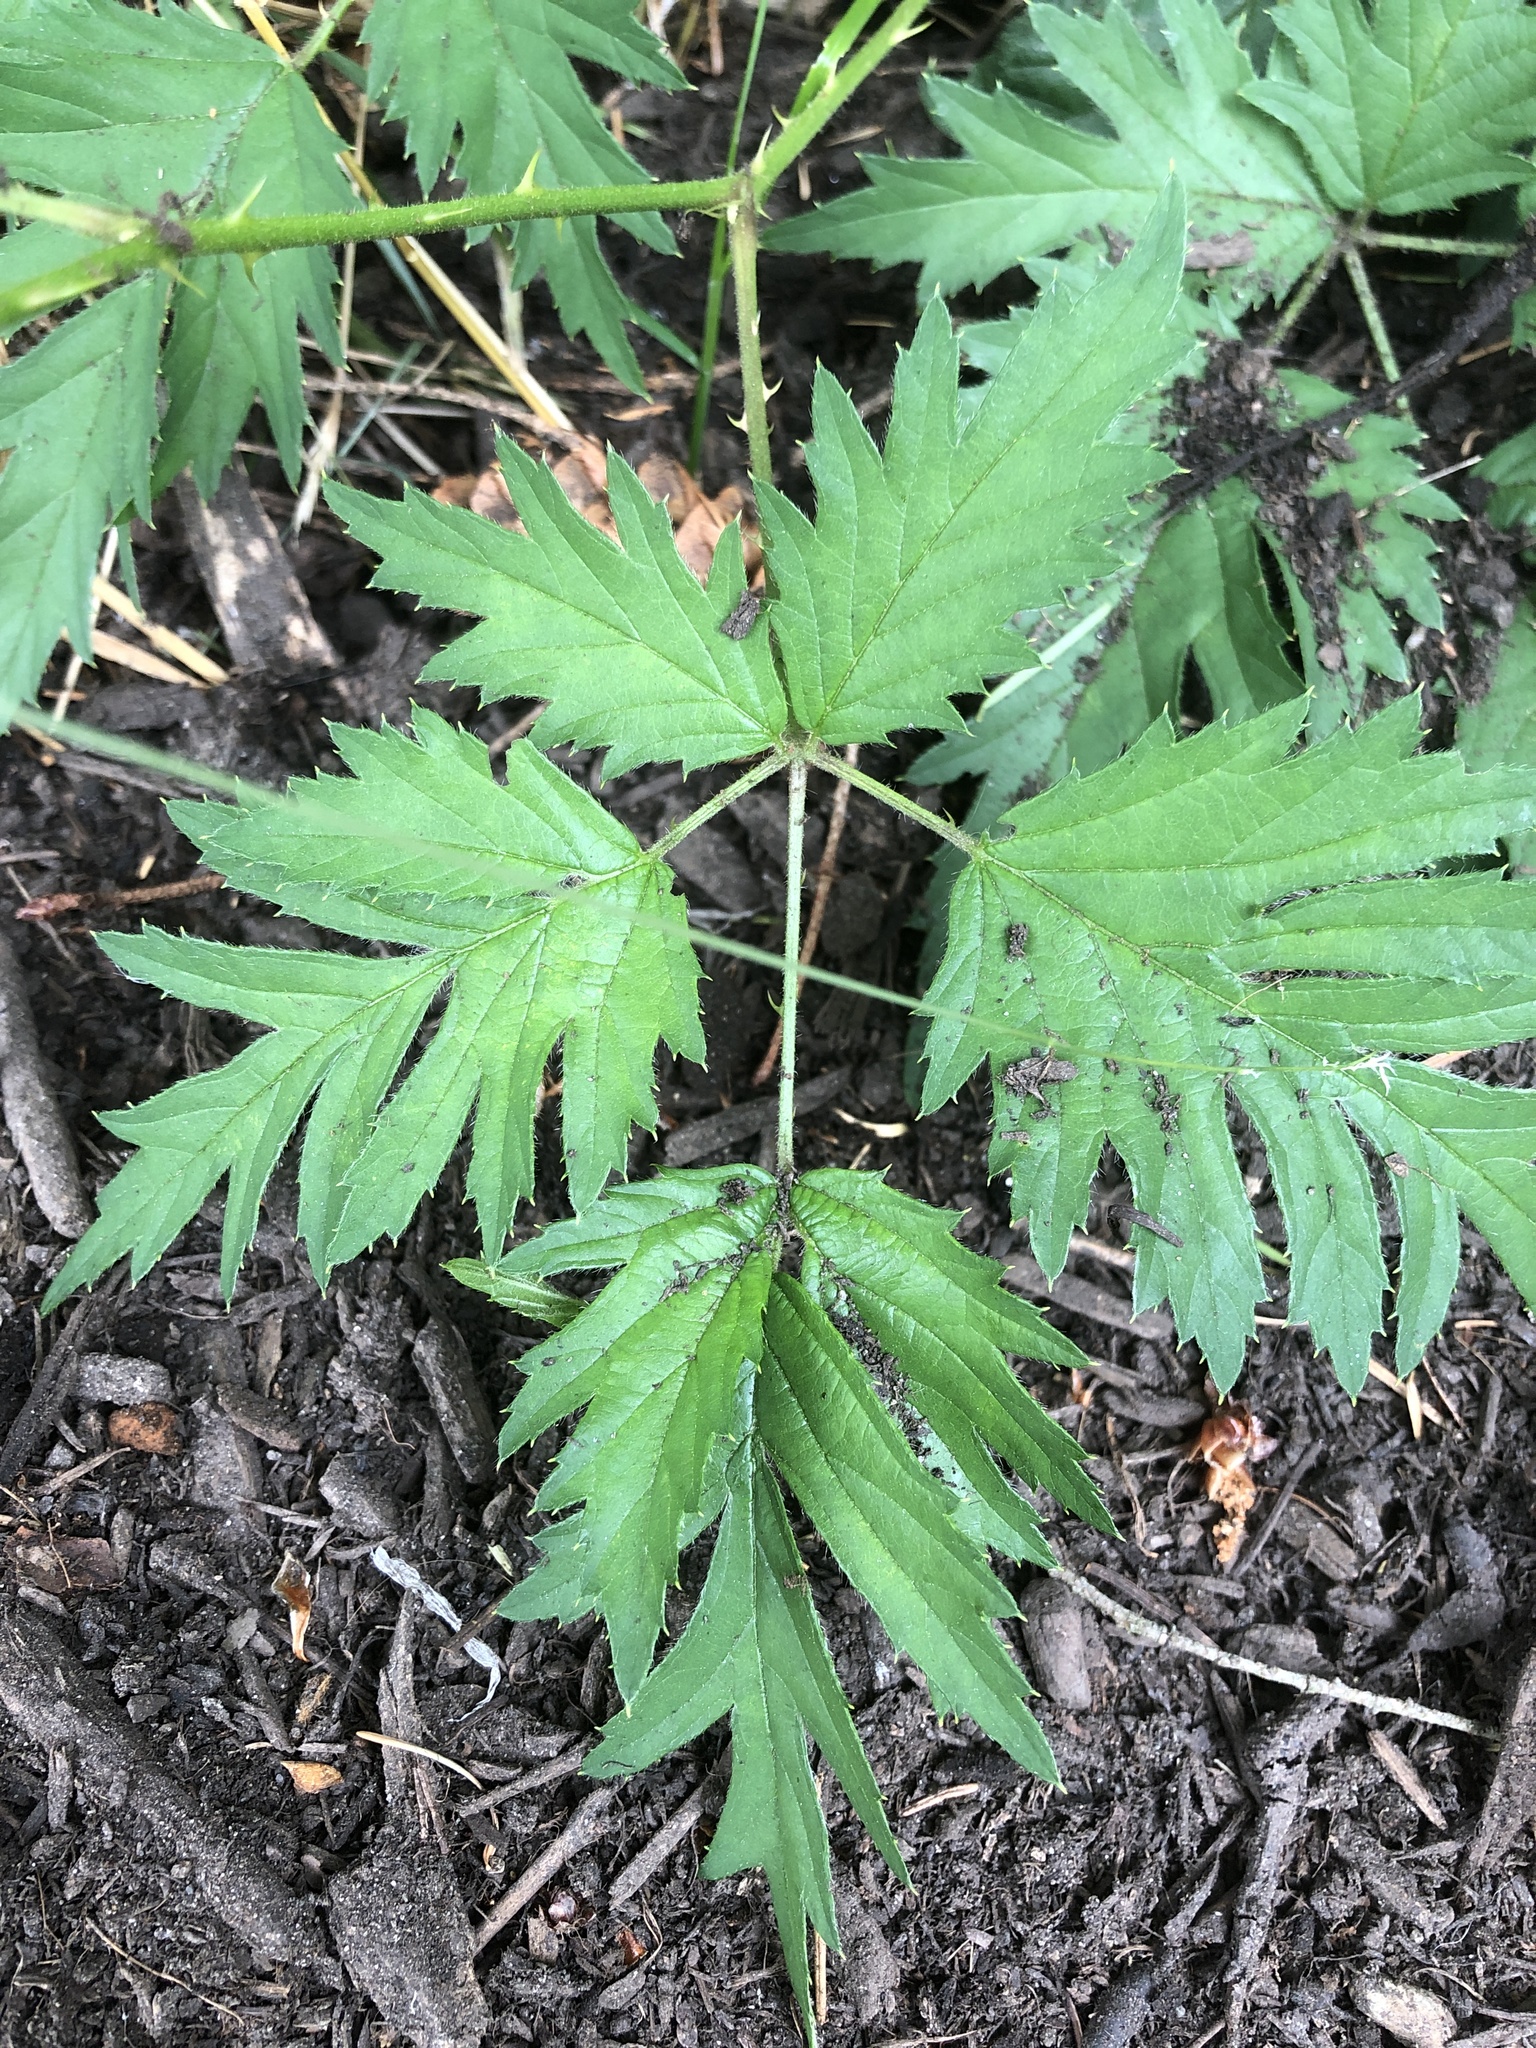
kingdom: Plantae
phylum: Tracheophyta
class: Magnoliopsida
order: Rosales
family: Rosaceae
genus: Rubus
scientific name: Rubus laciniatus
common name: Evergreen blackberry
